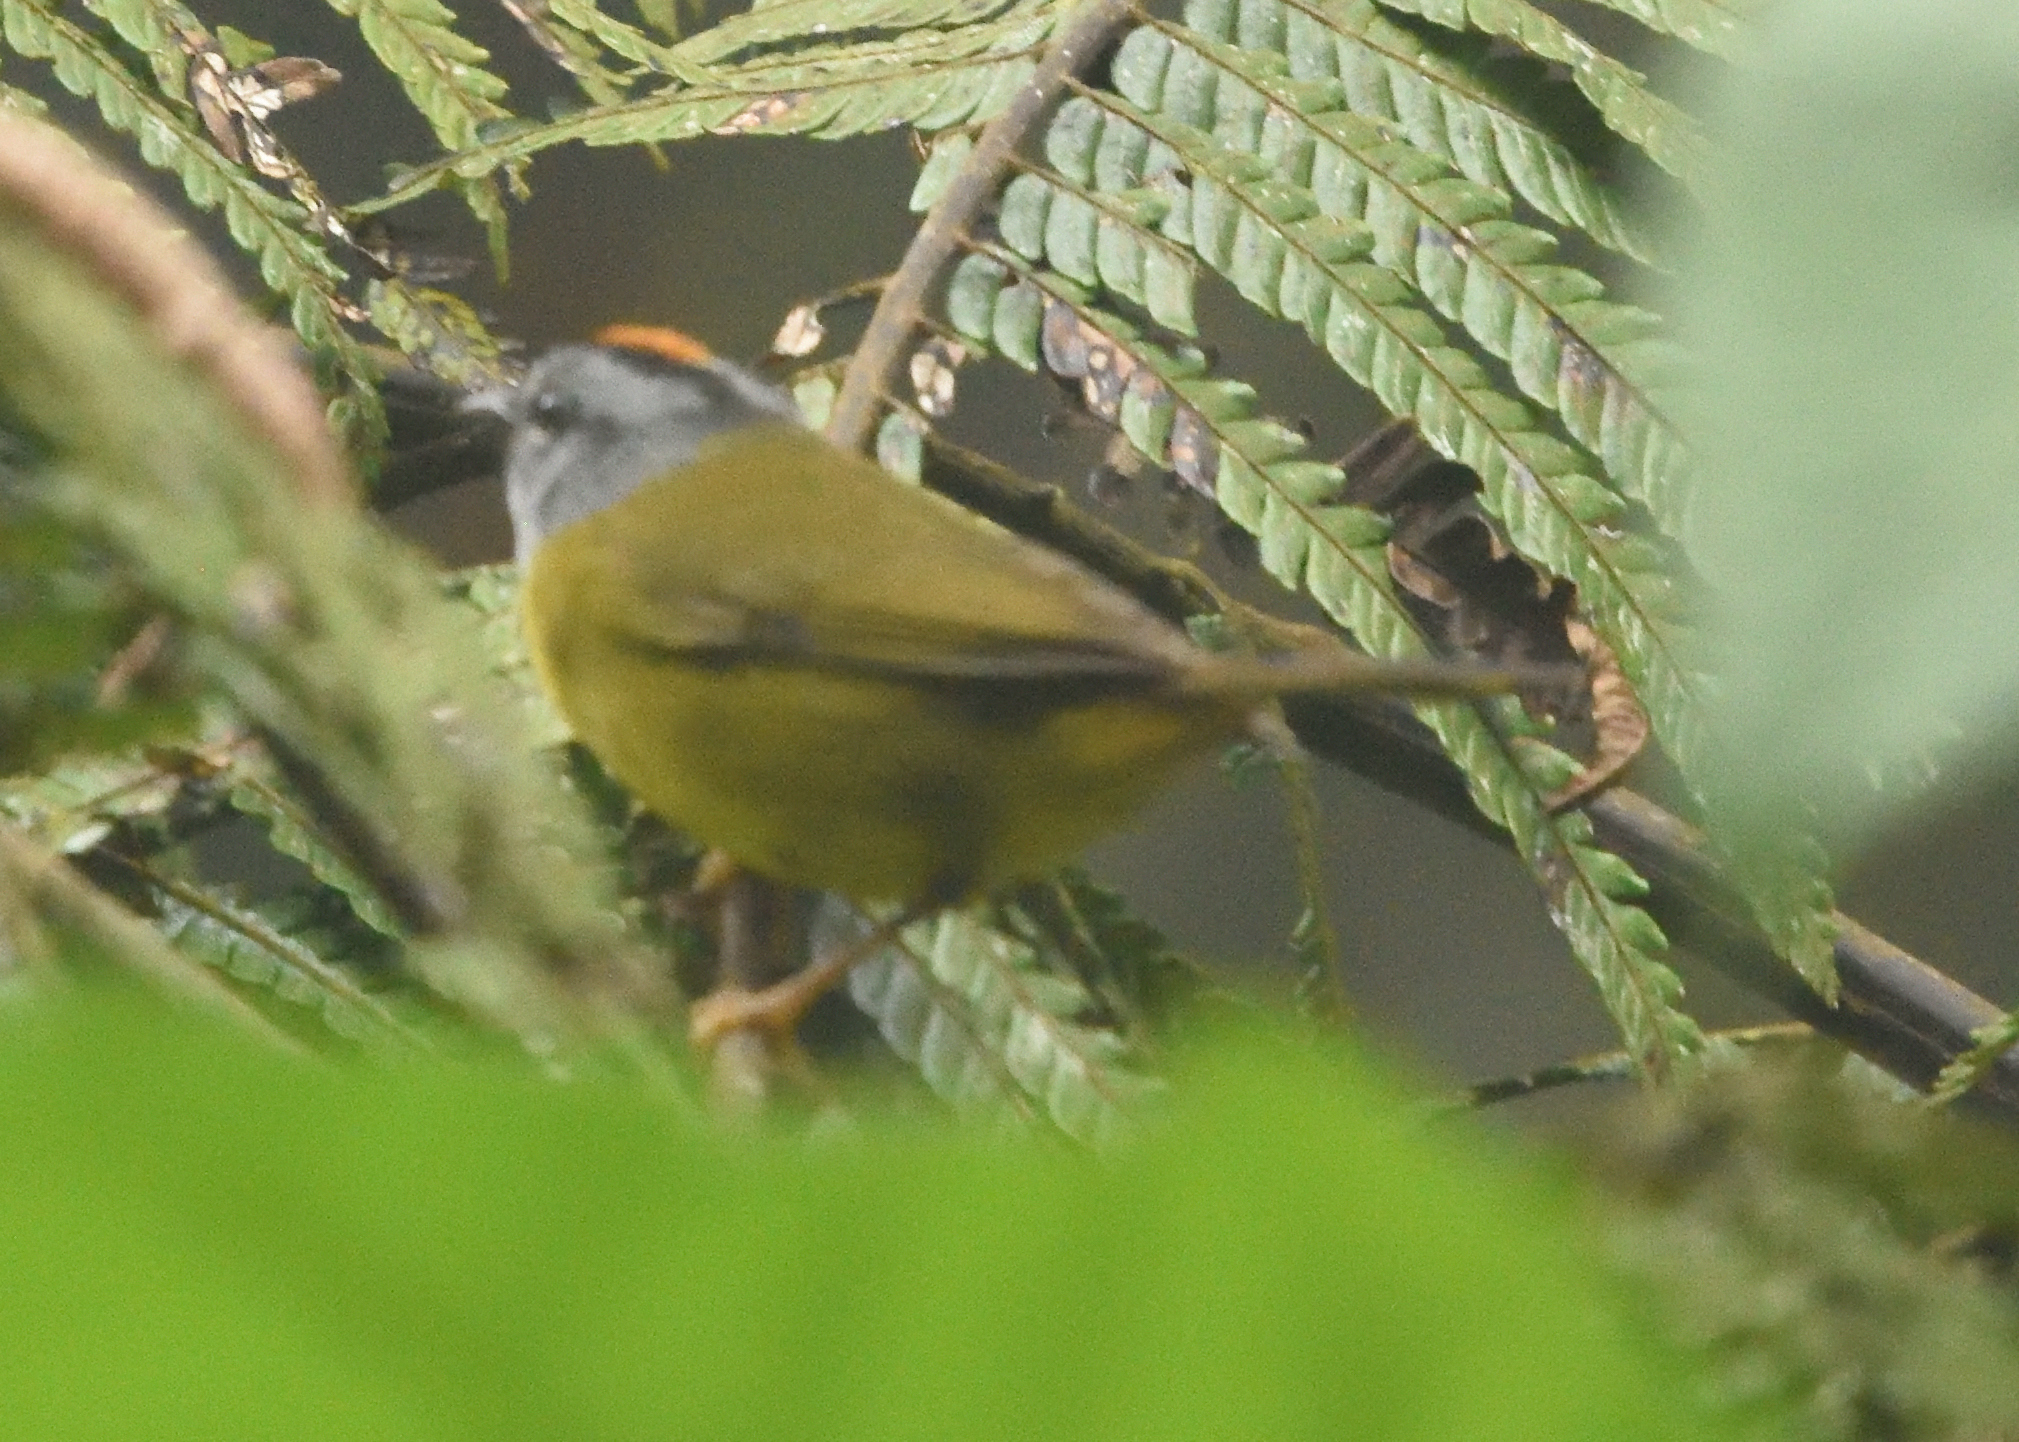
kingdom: Animalia
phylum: Chordata
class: Aves
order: Passeriformes
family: Parulidae
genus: Myiothlypis
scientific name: Myiothlypis coronata
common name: Russet-crowned warbler
